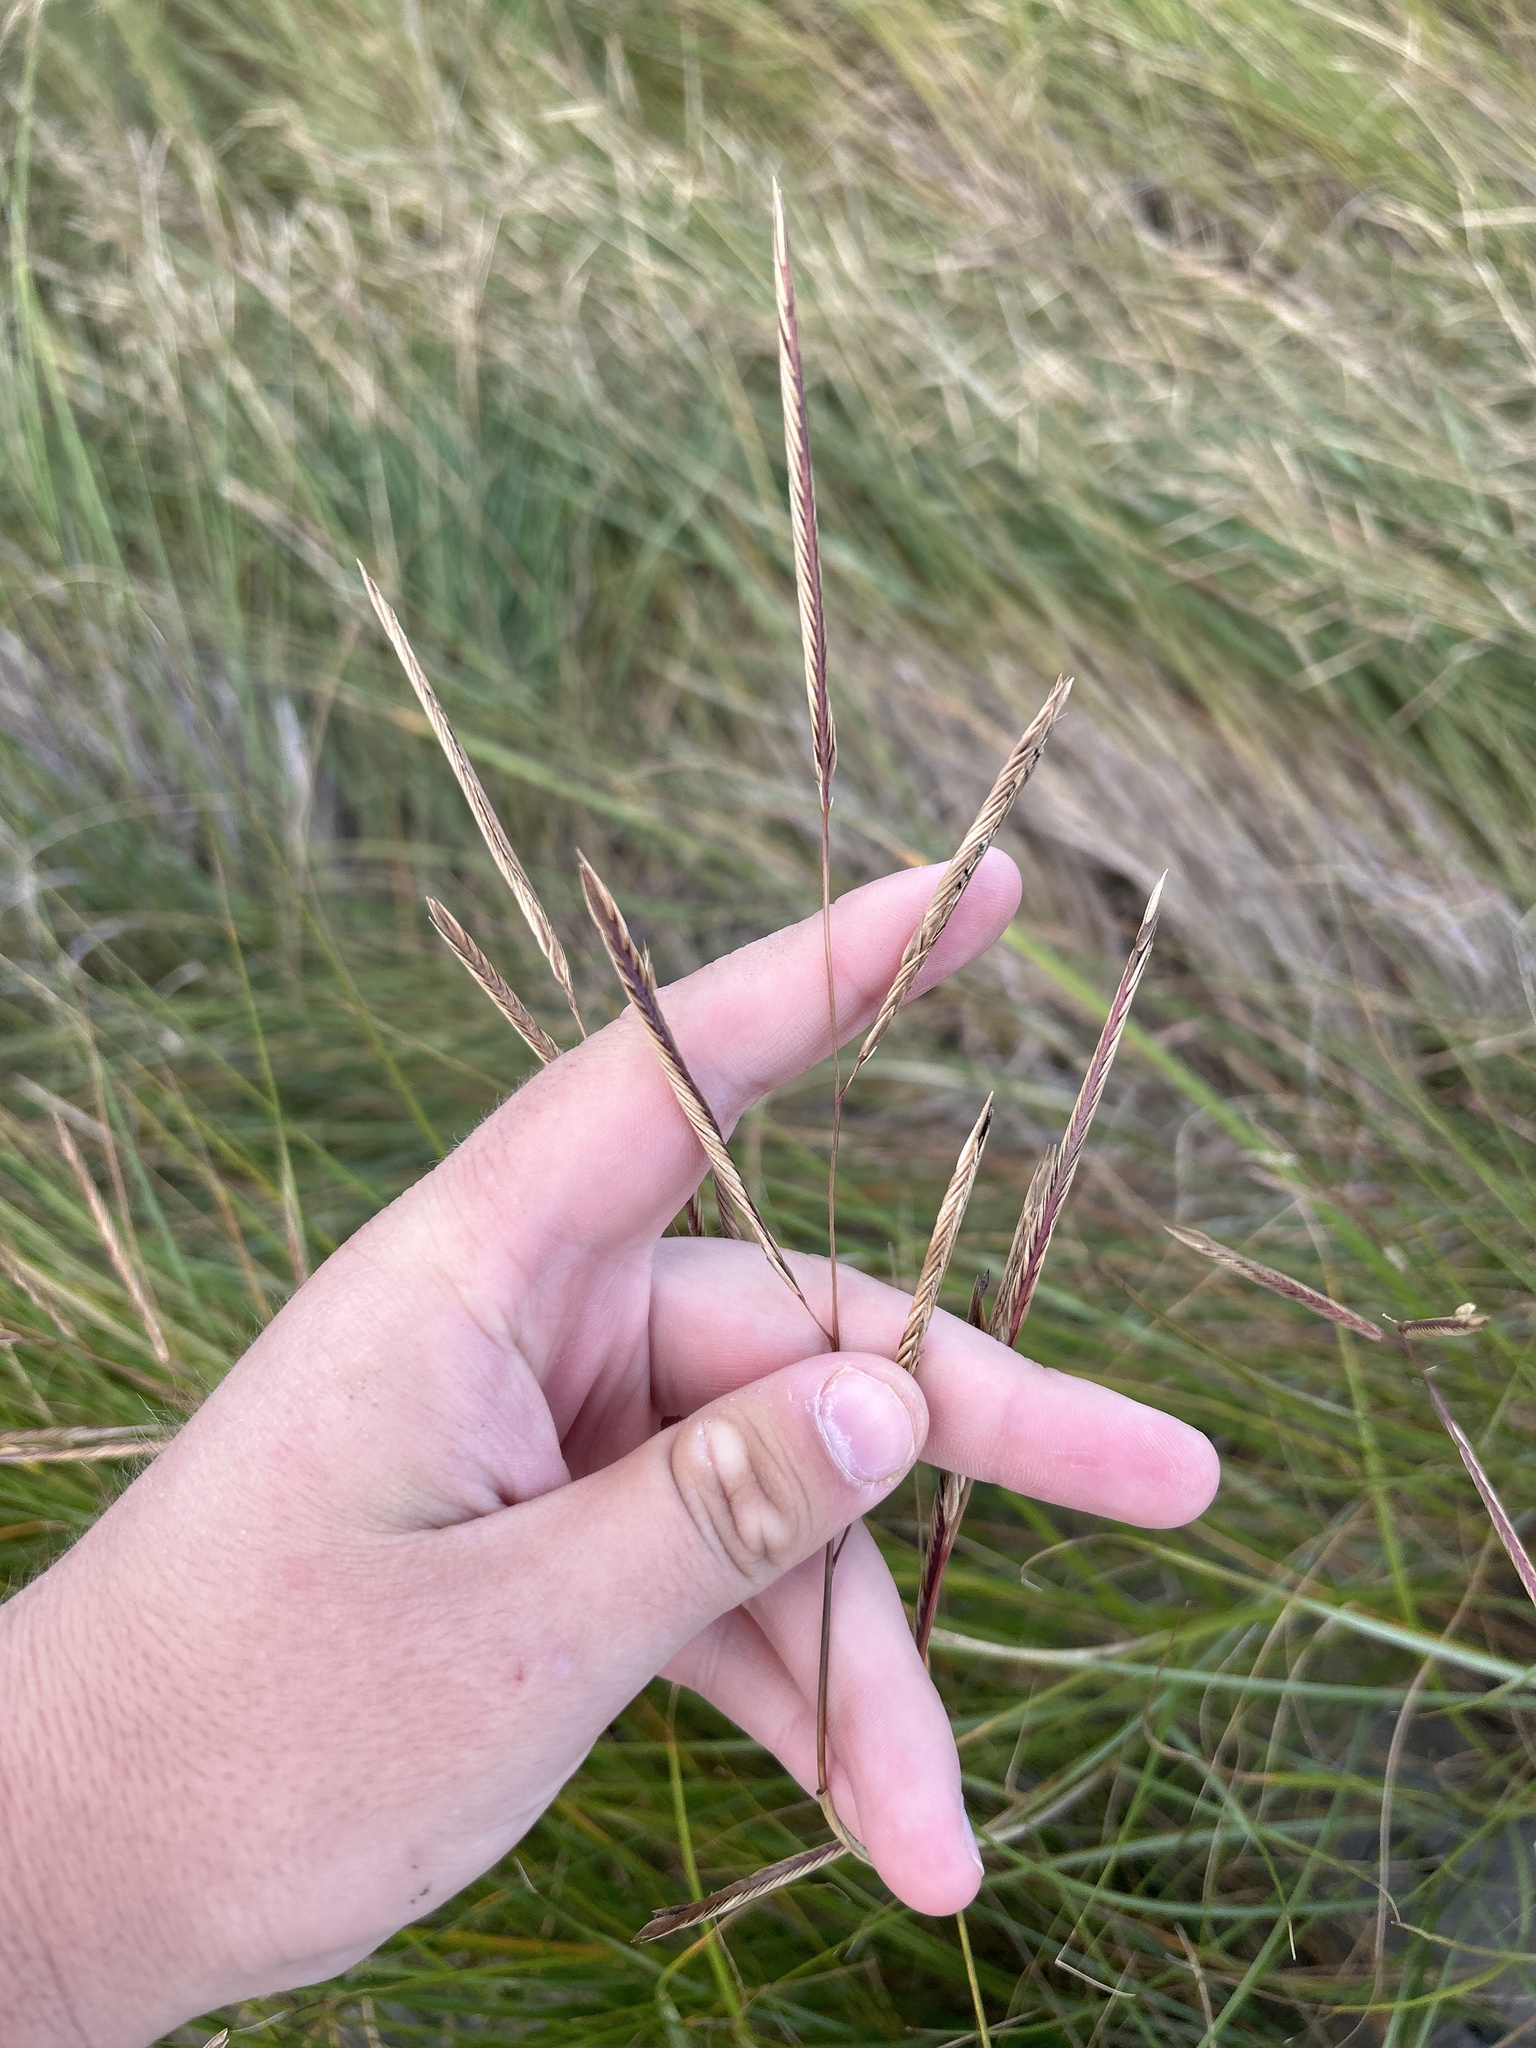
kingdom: Plantae
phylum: Tracheophyta
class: Liliopsida
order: Poales
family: Poaceae
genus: Sporobolus
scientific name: Sporobolus pumilus
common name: Highwater grass
